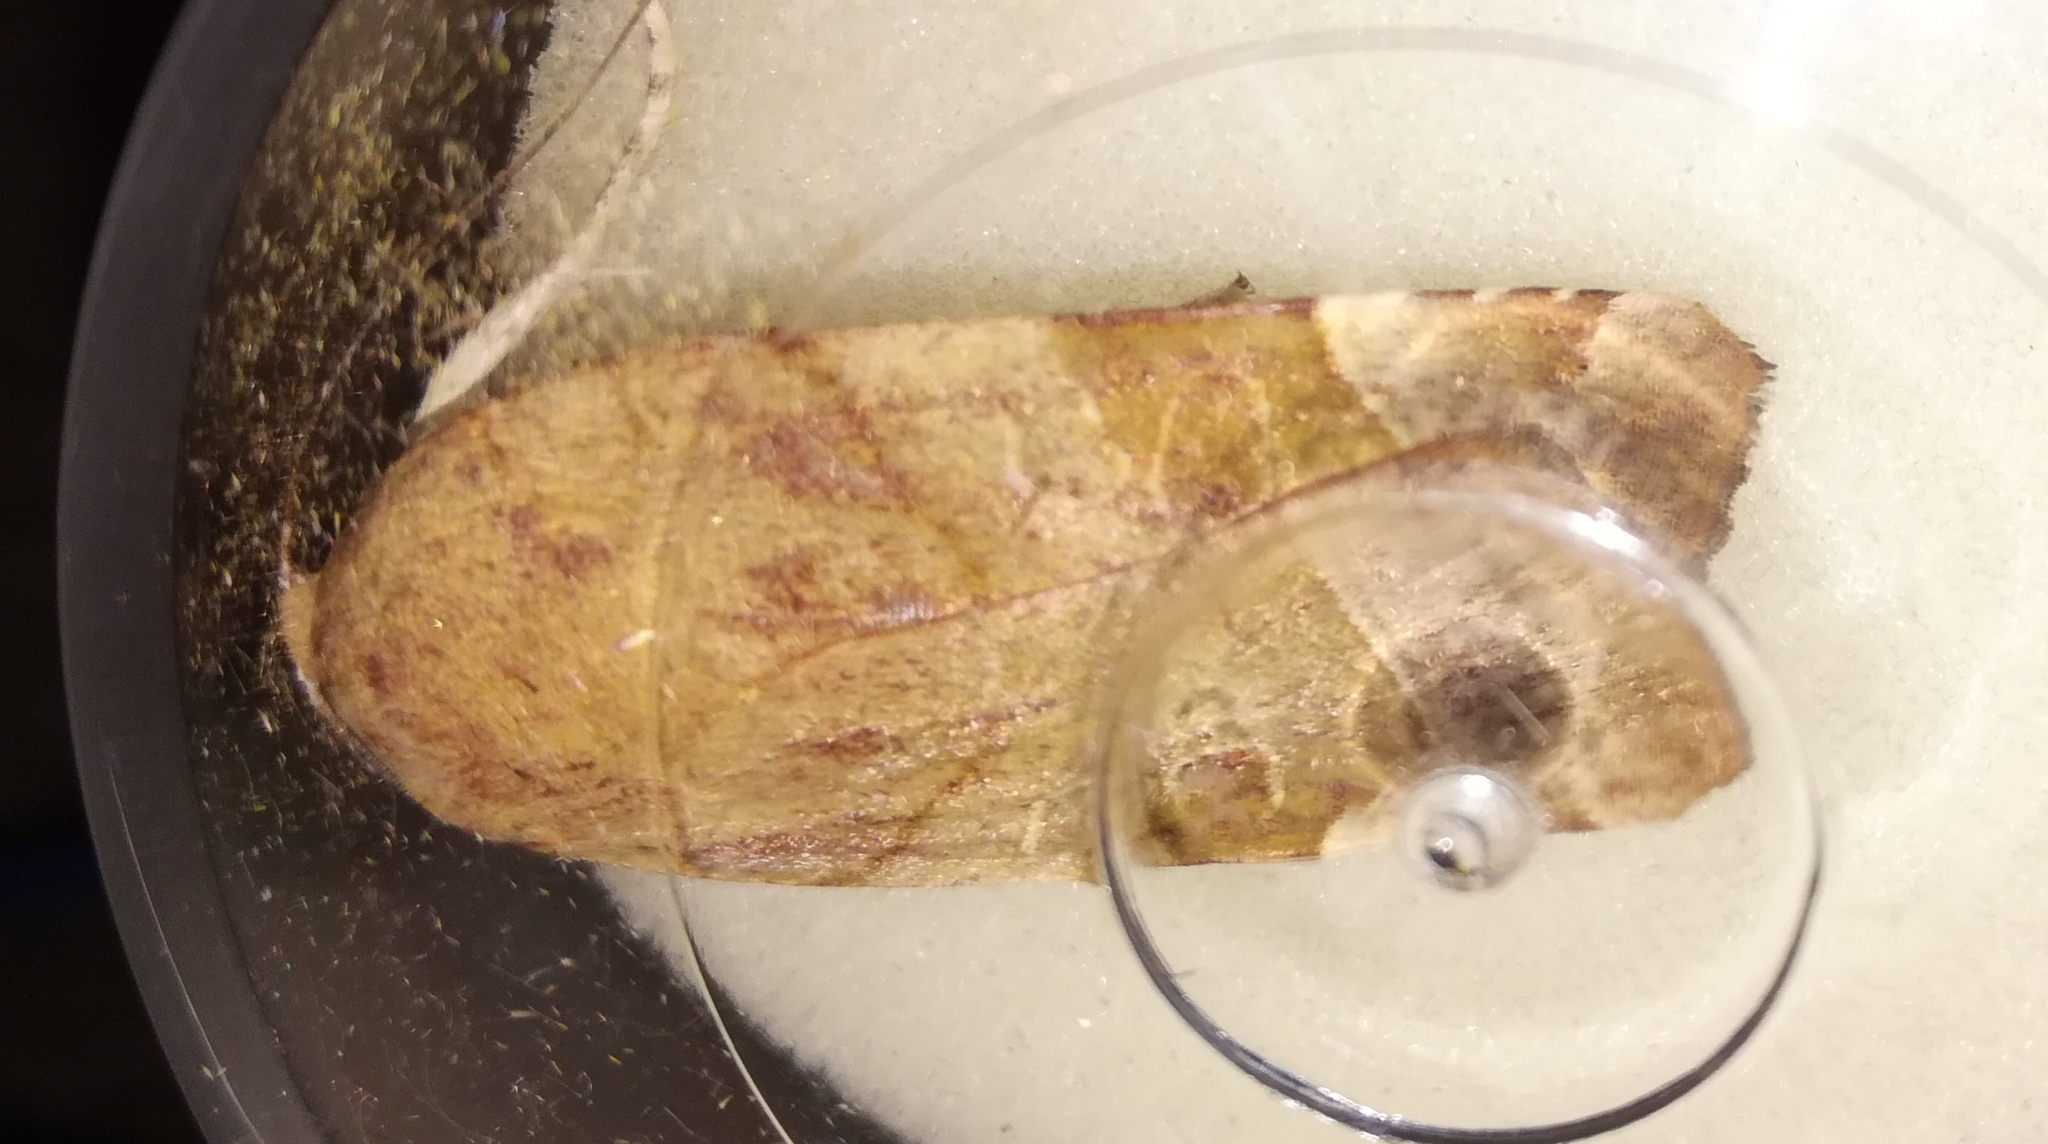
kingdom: Animalia
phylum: Arthropoda
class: Insecta
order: Lepidoptera
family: Noctuidae
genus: Noctua
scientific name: Noctua fimbriata
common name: Broad-bordered yellow underwing
